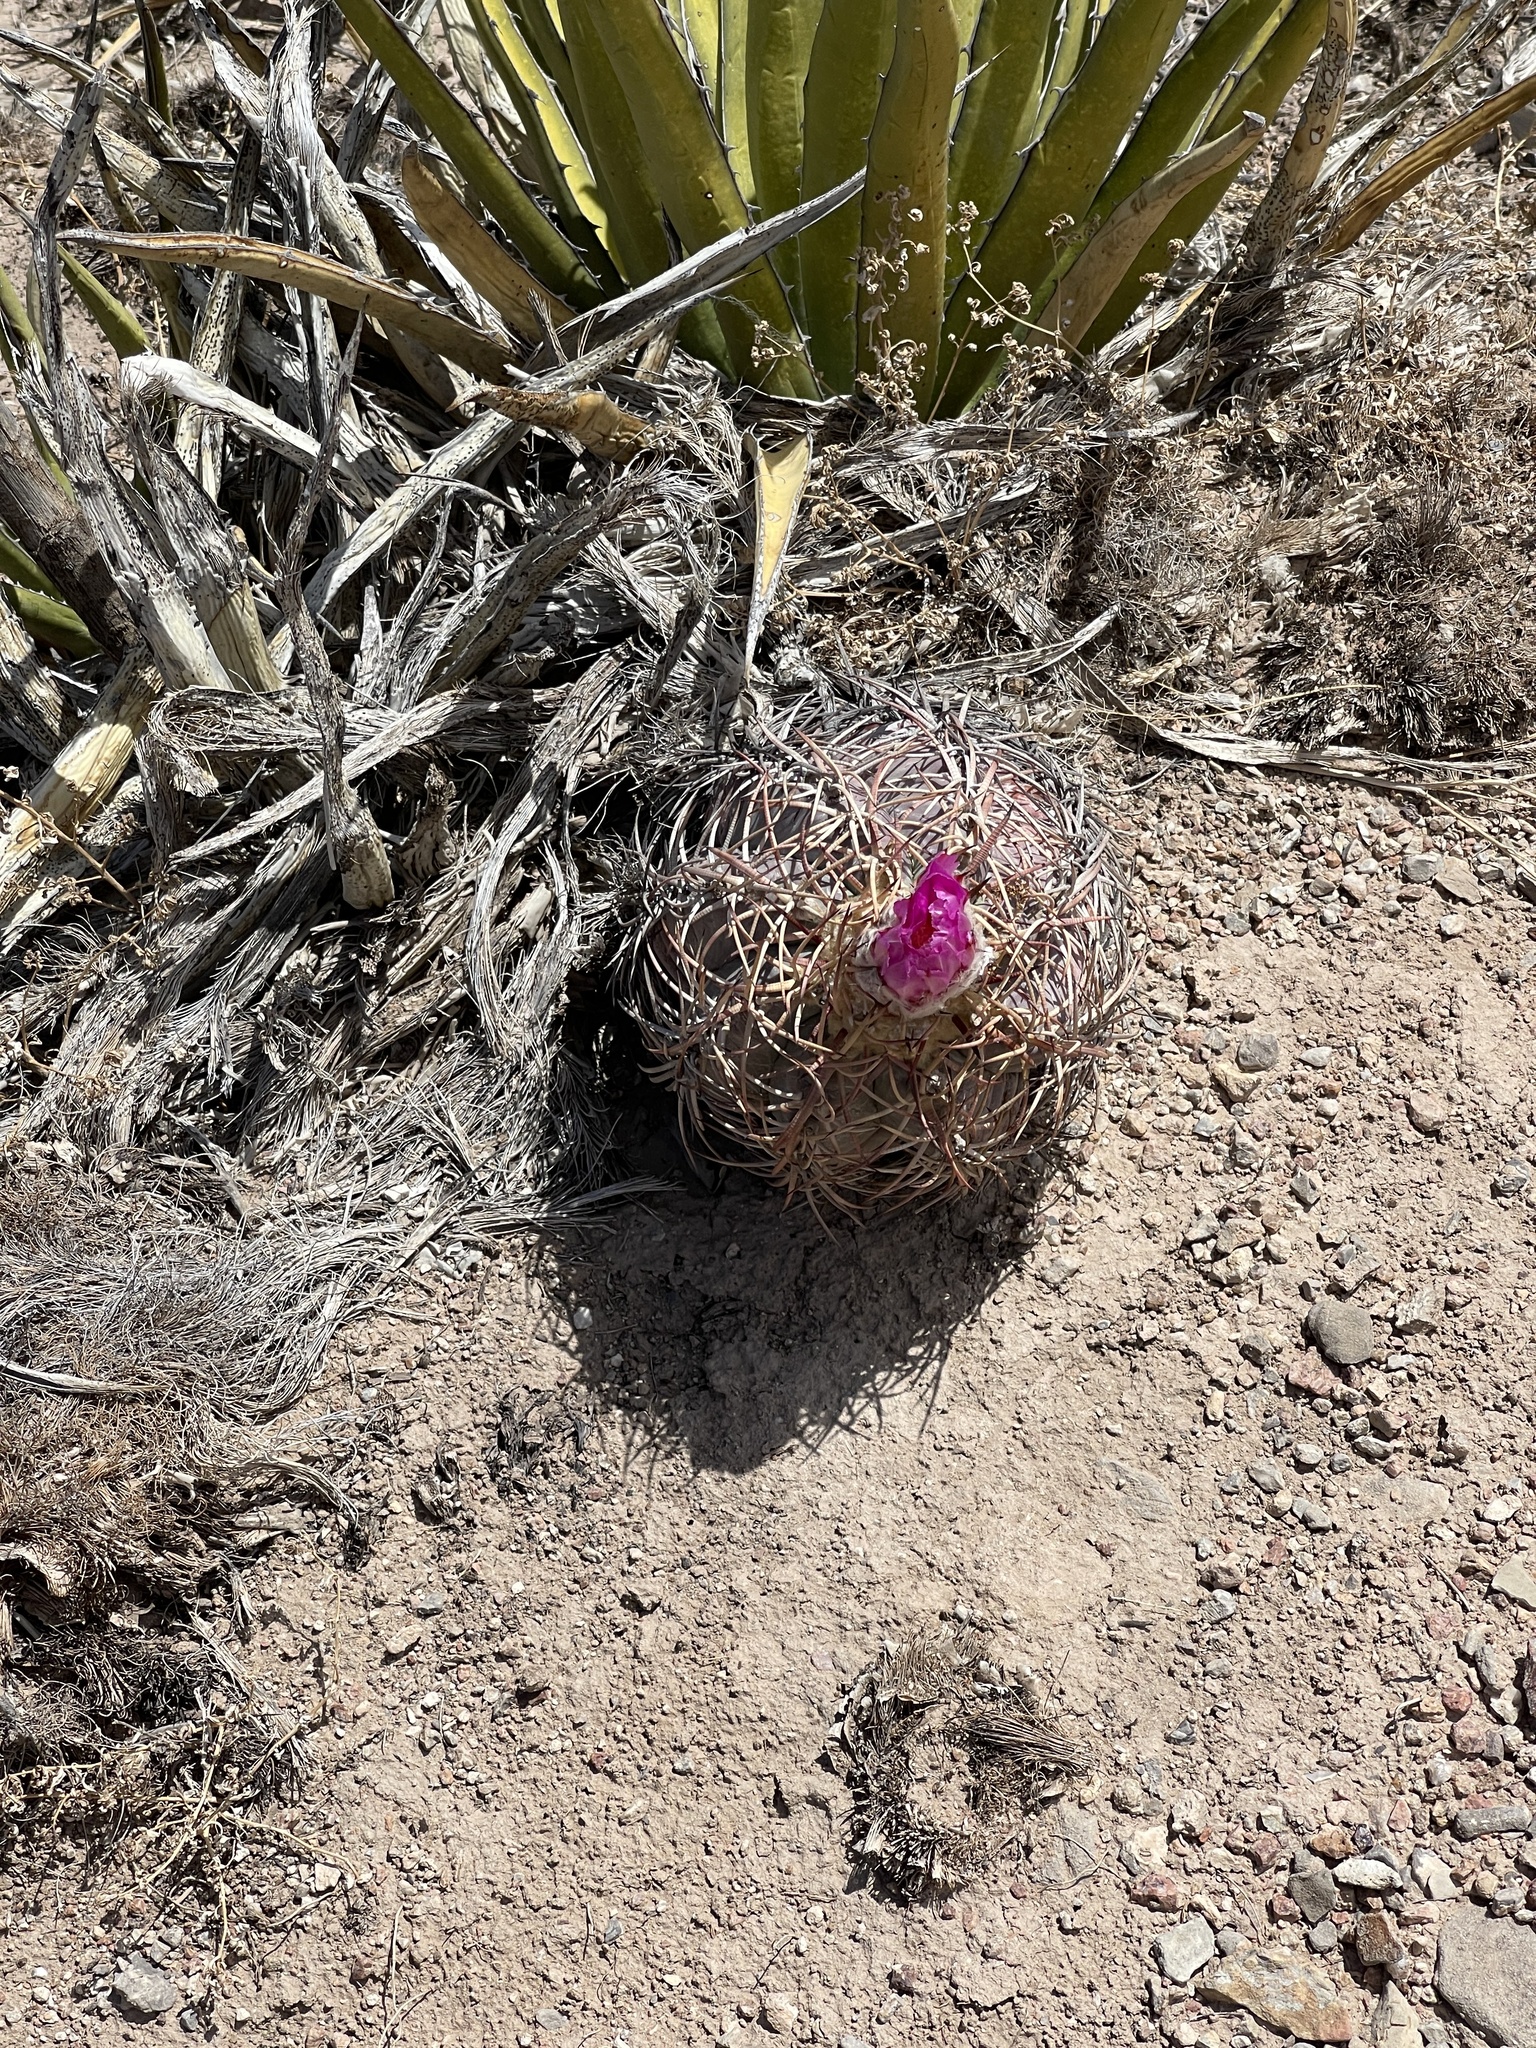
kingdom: Plantae
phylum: Tracheophyta
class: Magnoliopsida
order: Caryophyllales
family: Cactaceae
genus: Echinocactus
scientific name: Echinocactus horizonthalonius
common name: Devilshead
